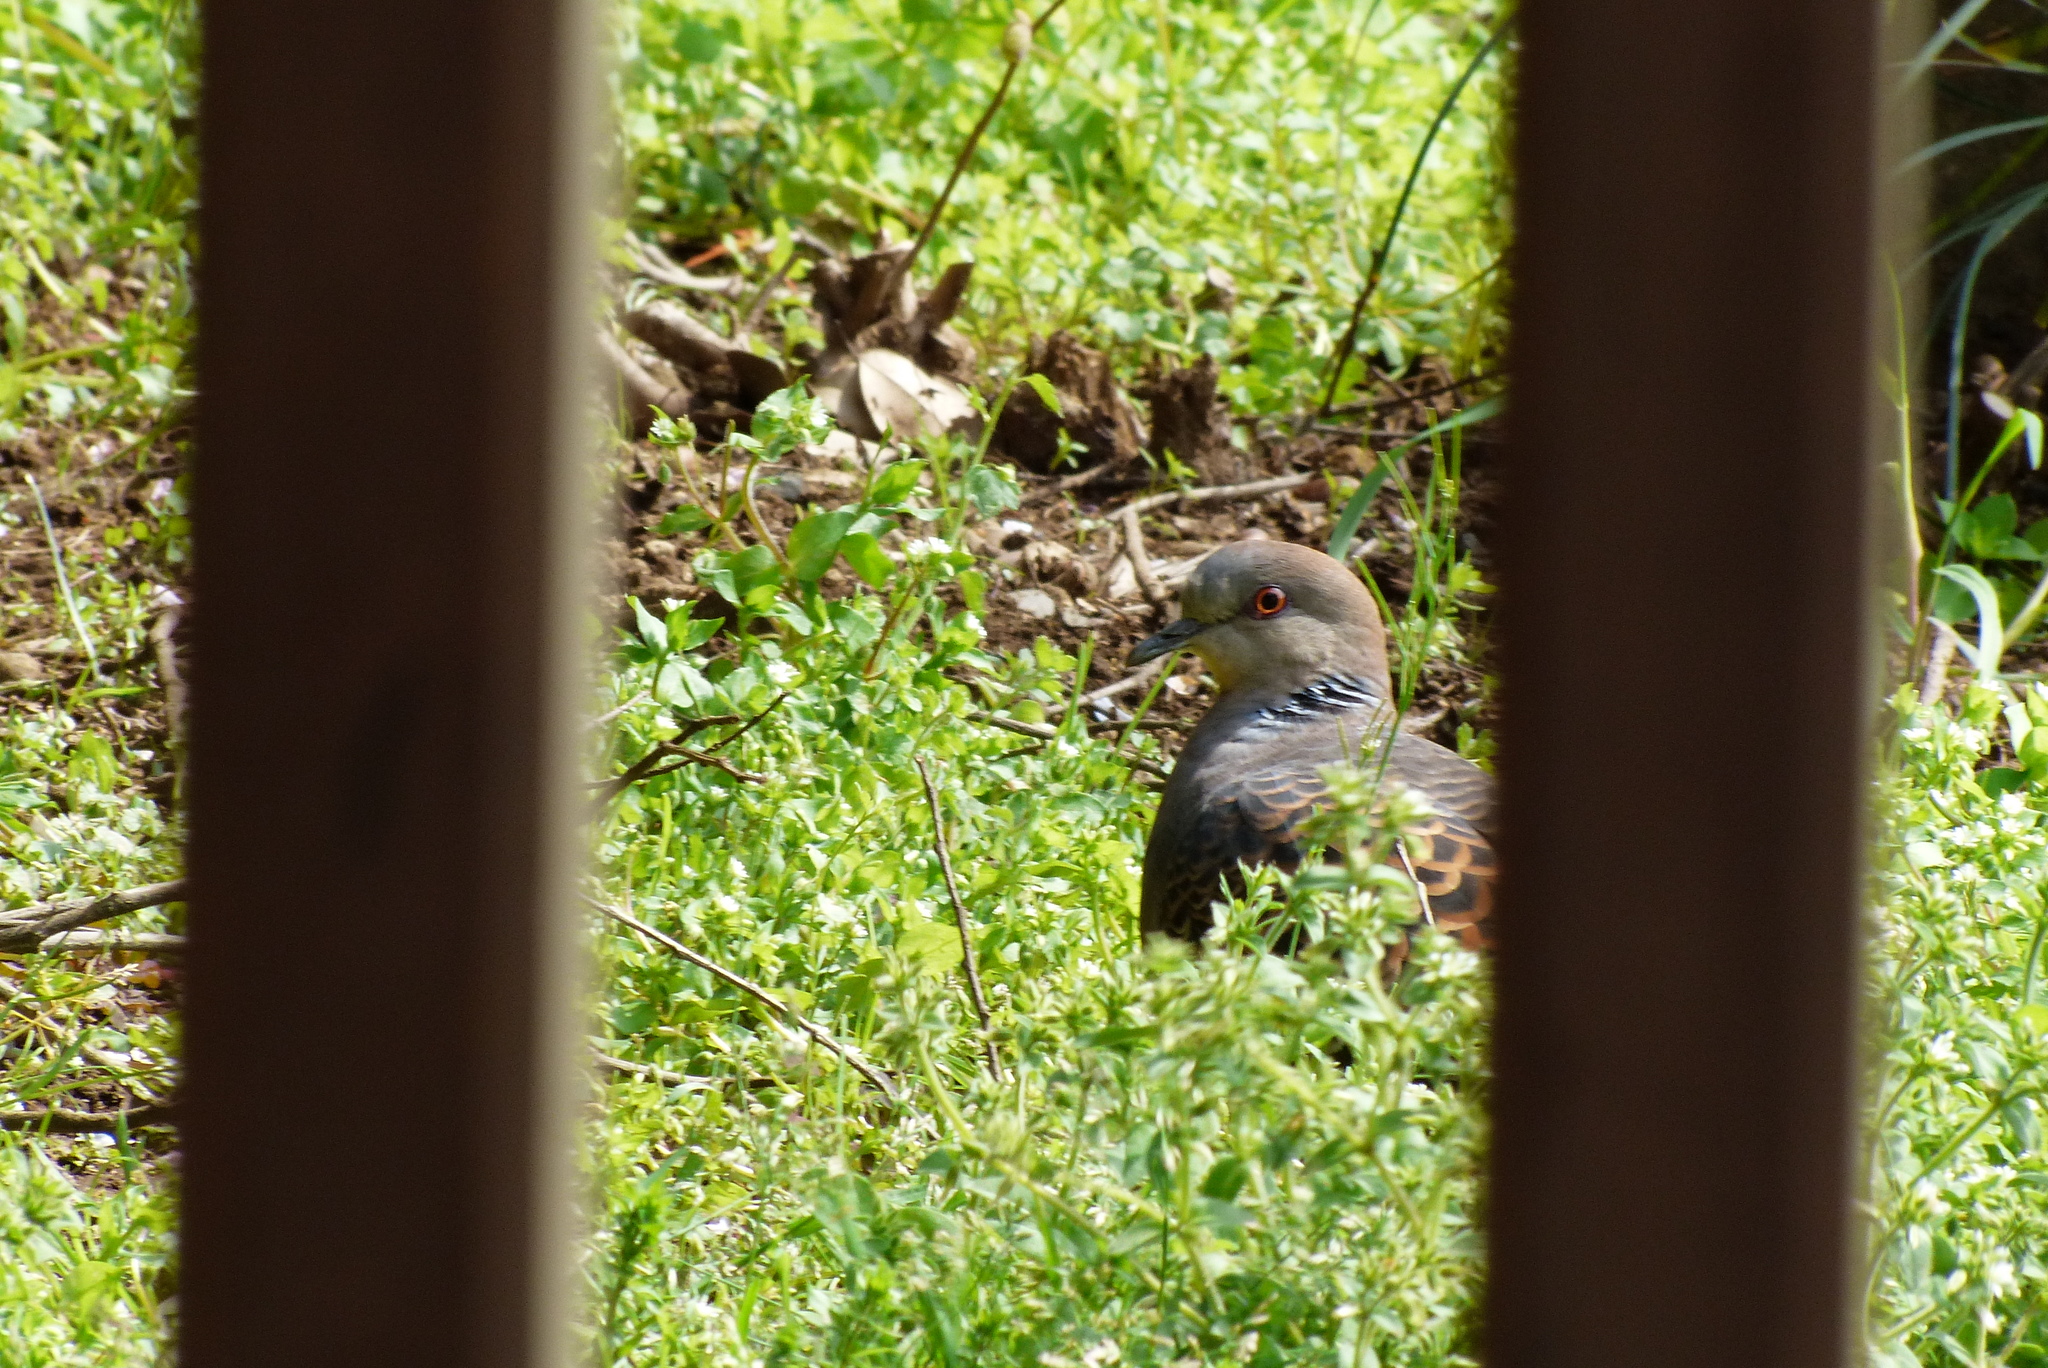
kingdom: Animalia
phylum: Chordata
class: Aves
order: Columbiformes
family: Columbidae
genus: Streptopelia
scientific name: Streptopelia orientalis
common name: Oriental turtle dove
